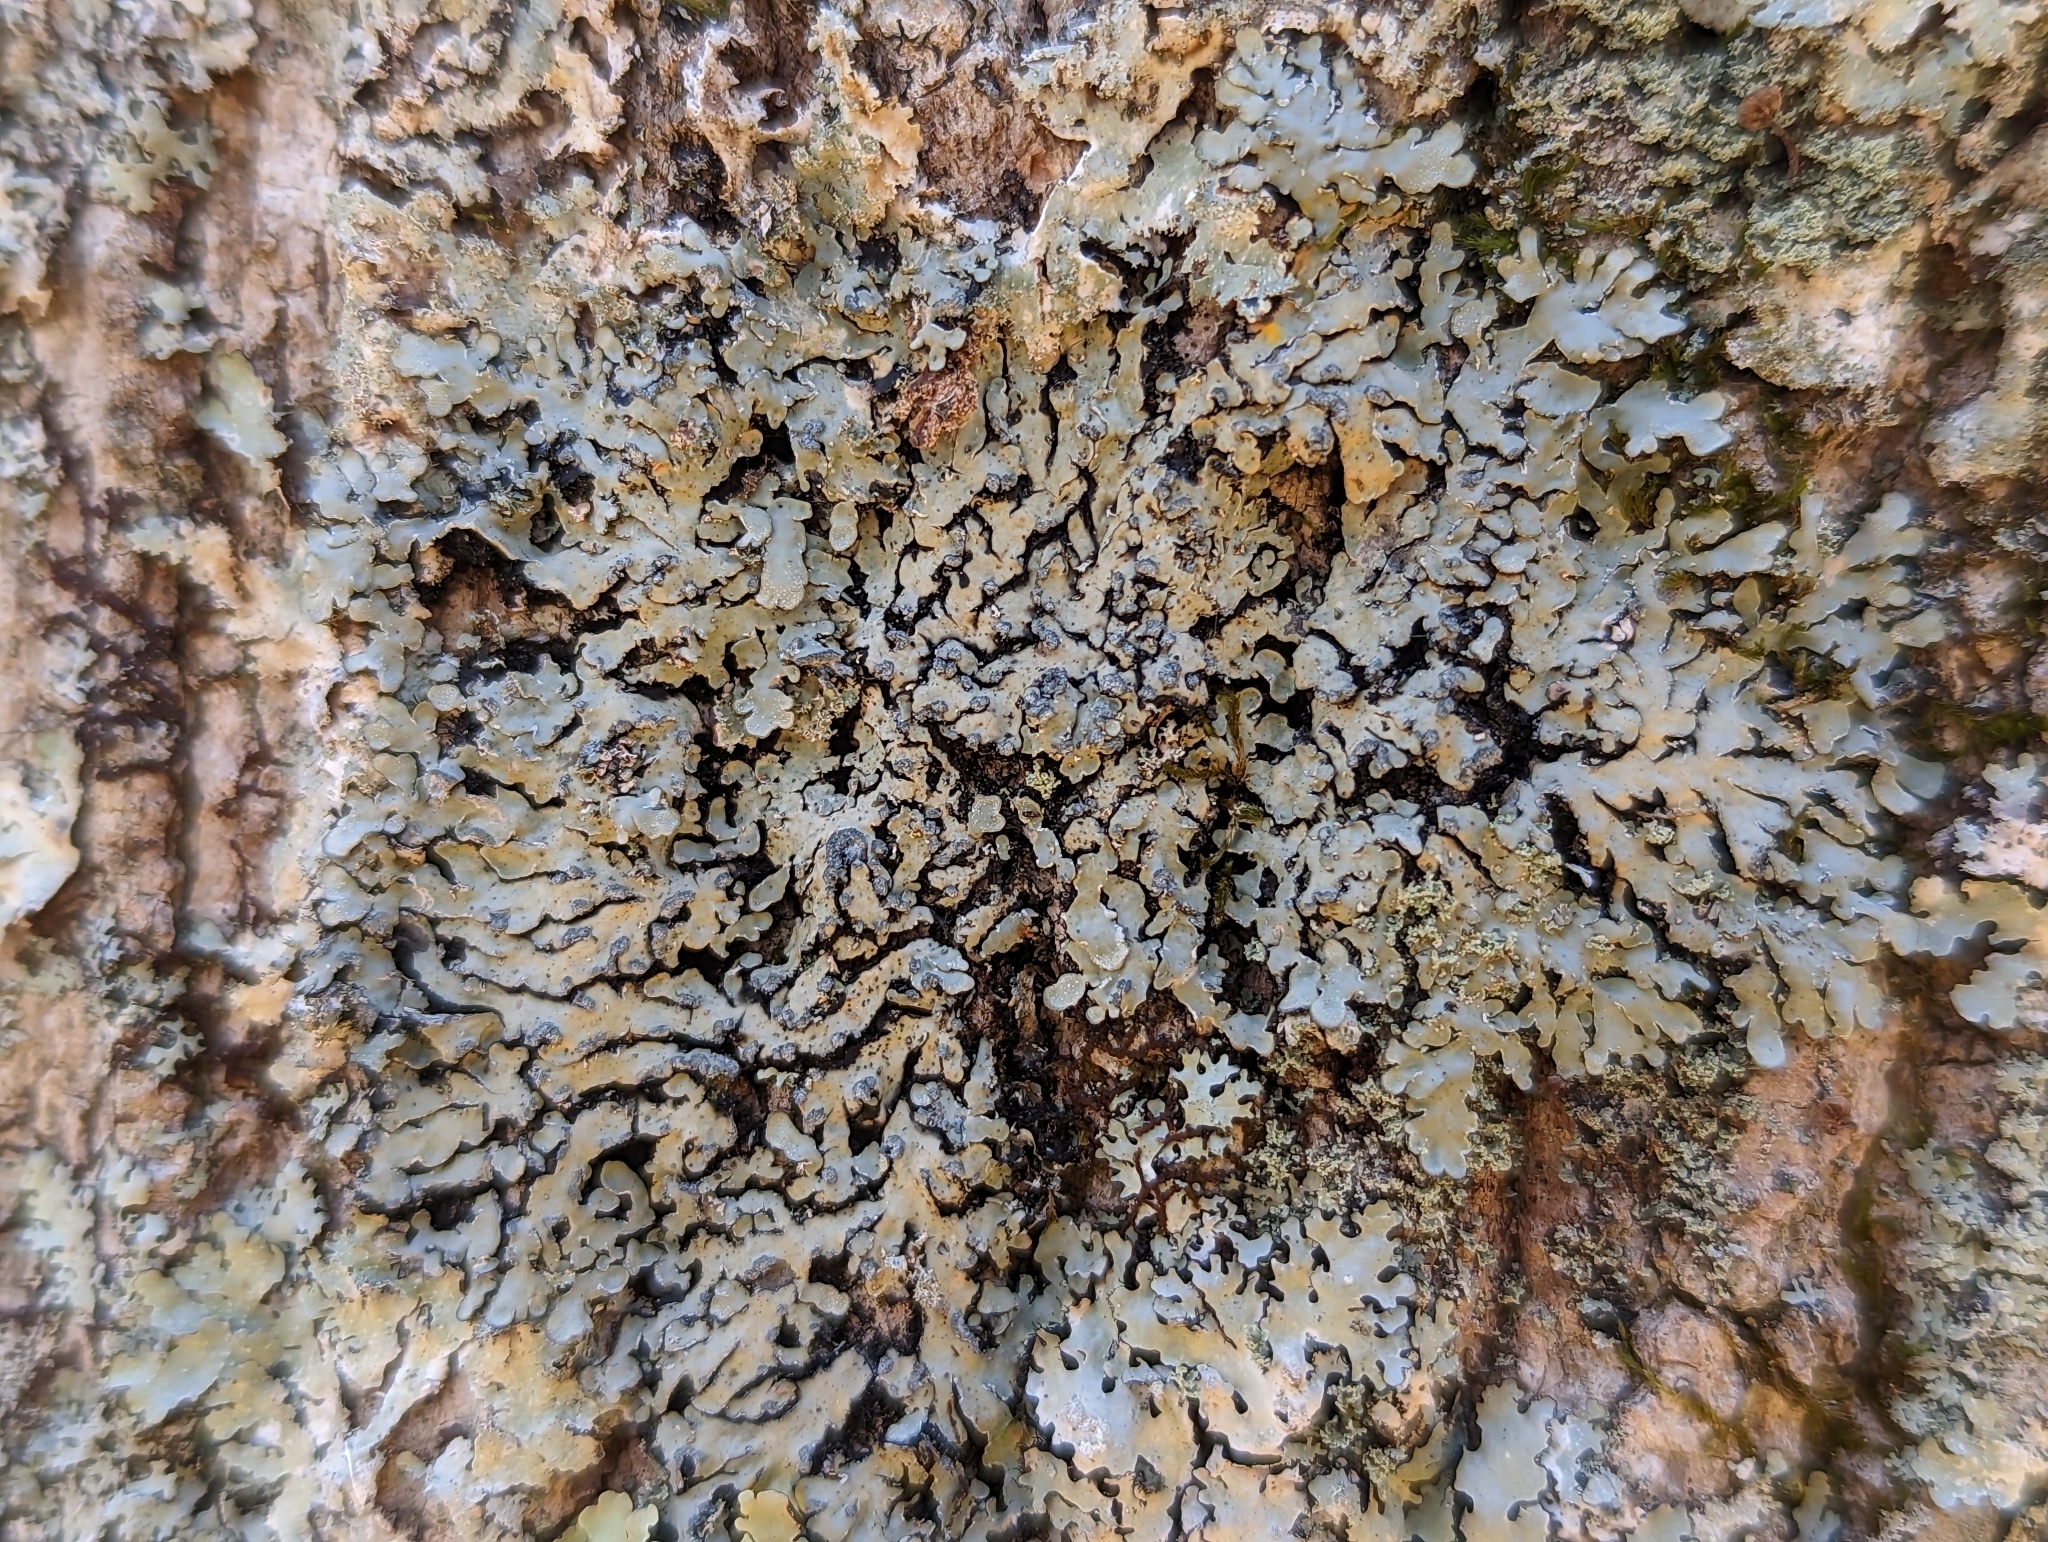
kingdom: Fungi
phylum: Ascomycota
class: Lecanoromycetes
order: Caliciales
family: Caliciaceae
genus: Pyxine
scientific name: Pyxine sorediata
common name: Mustard lichen
